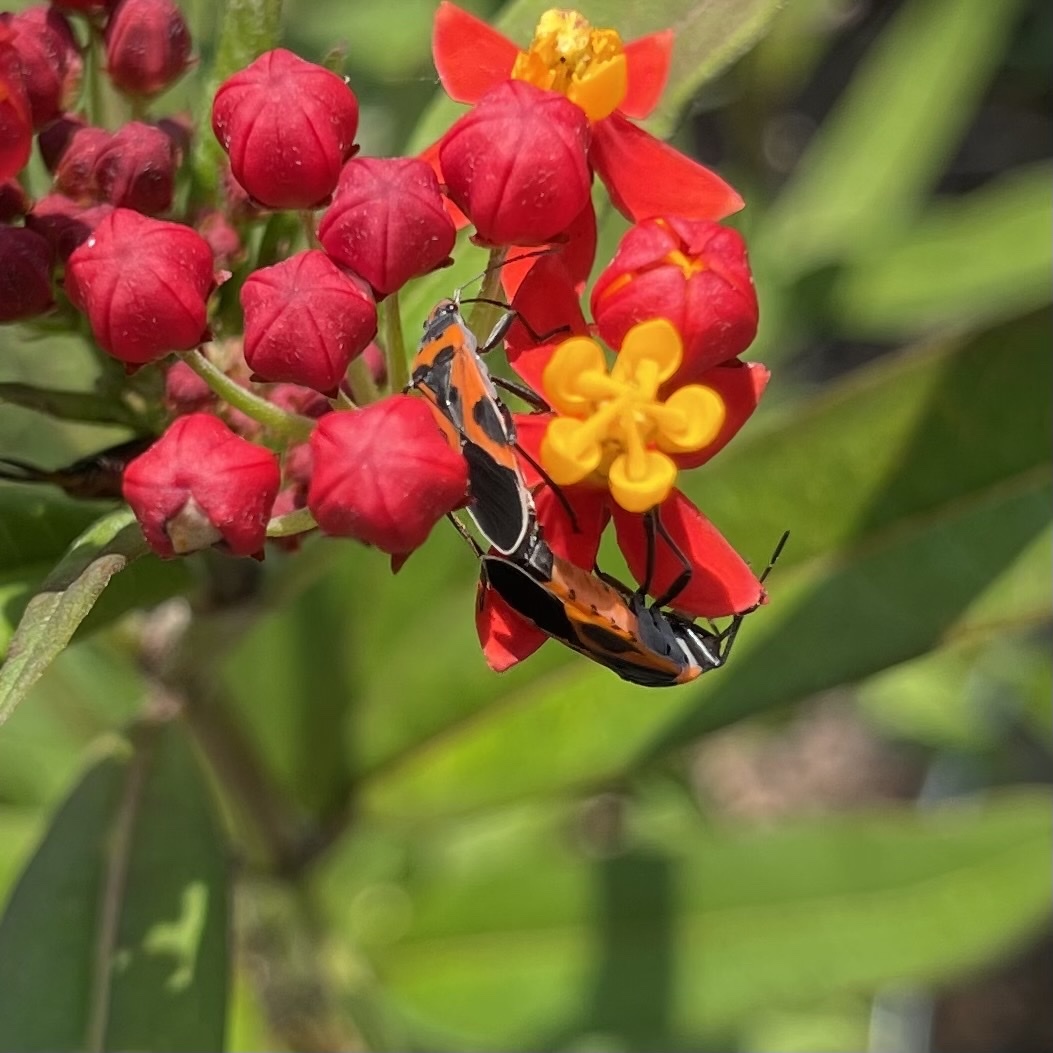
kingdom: Animalia
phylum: Arthropoda
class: Insecta
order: Hemiptera
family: Lygaeidae
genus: Lygaeus
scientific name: Lygaeus
